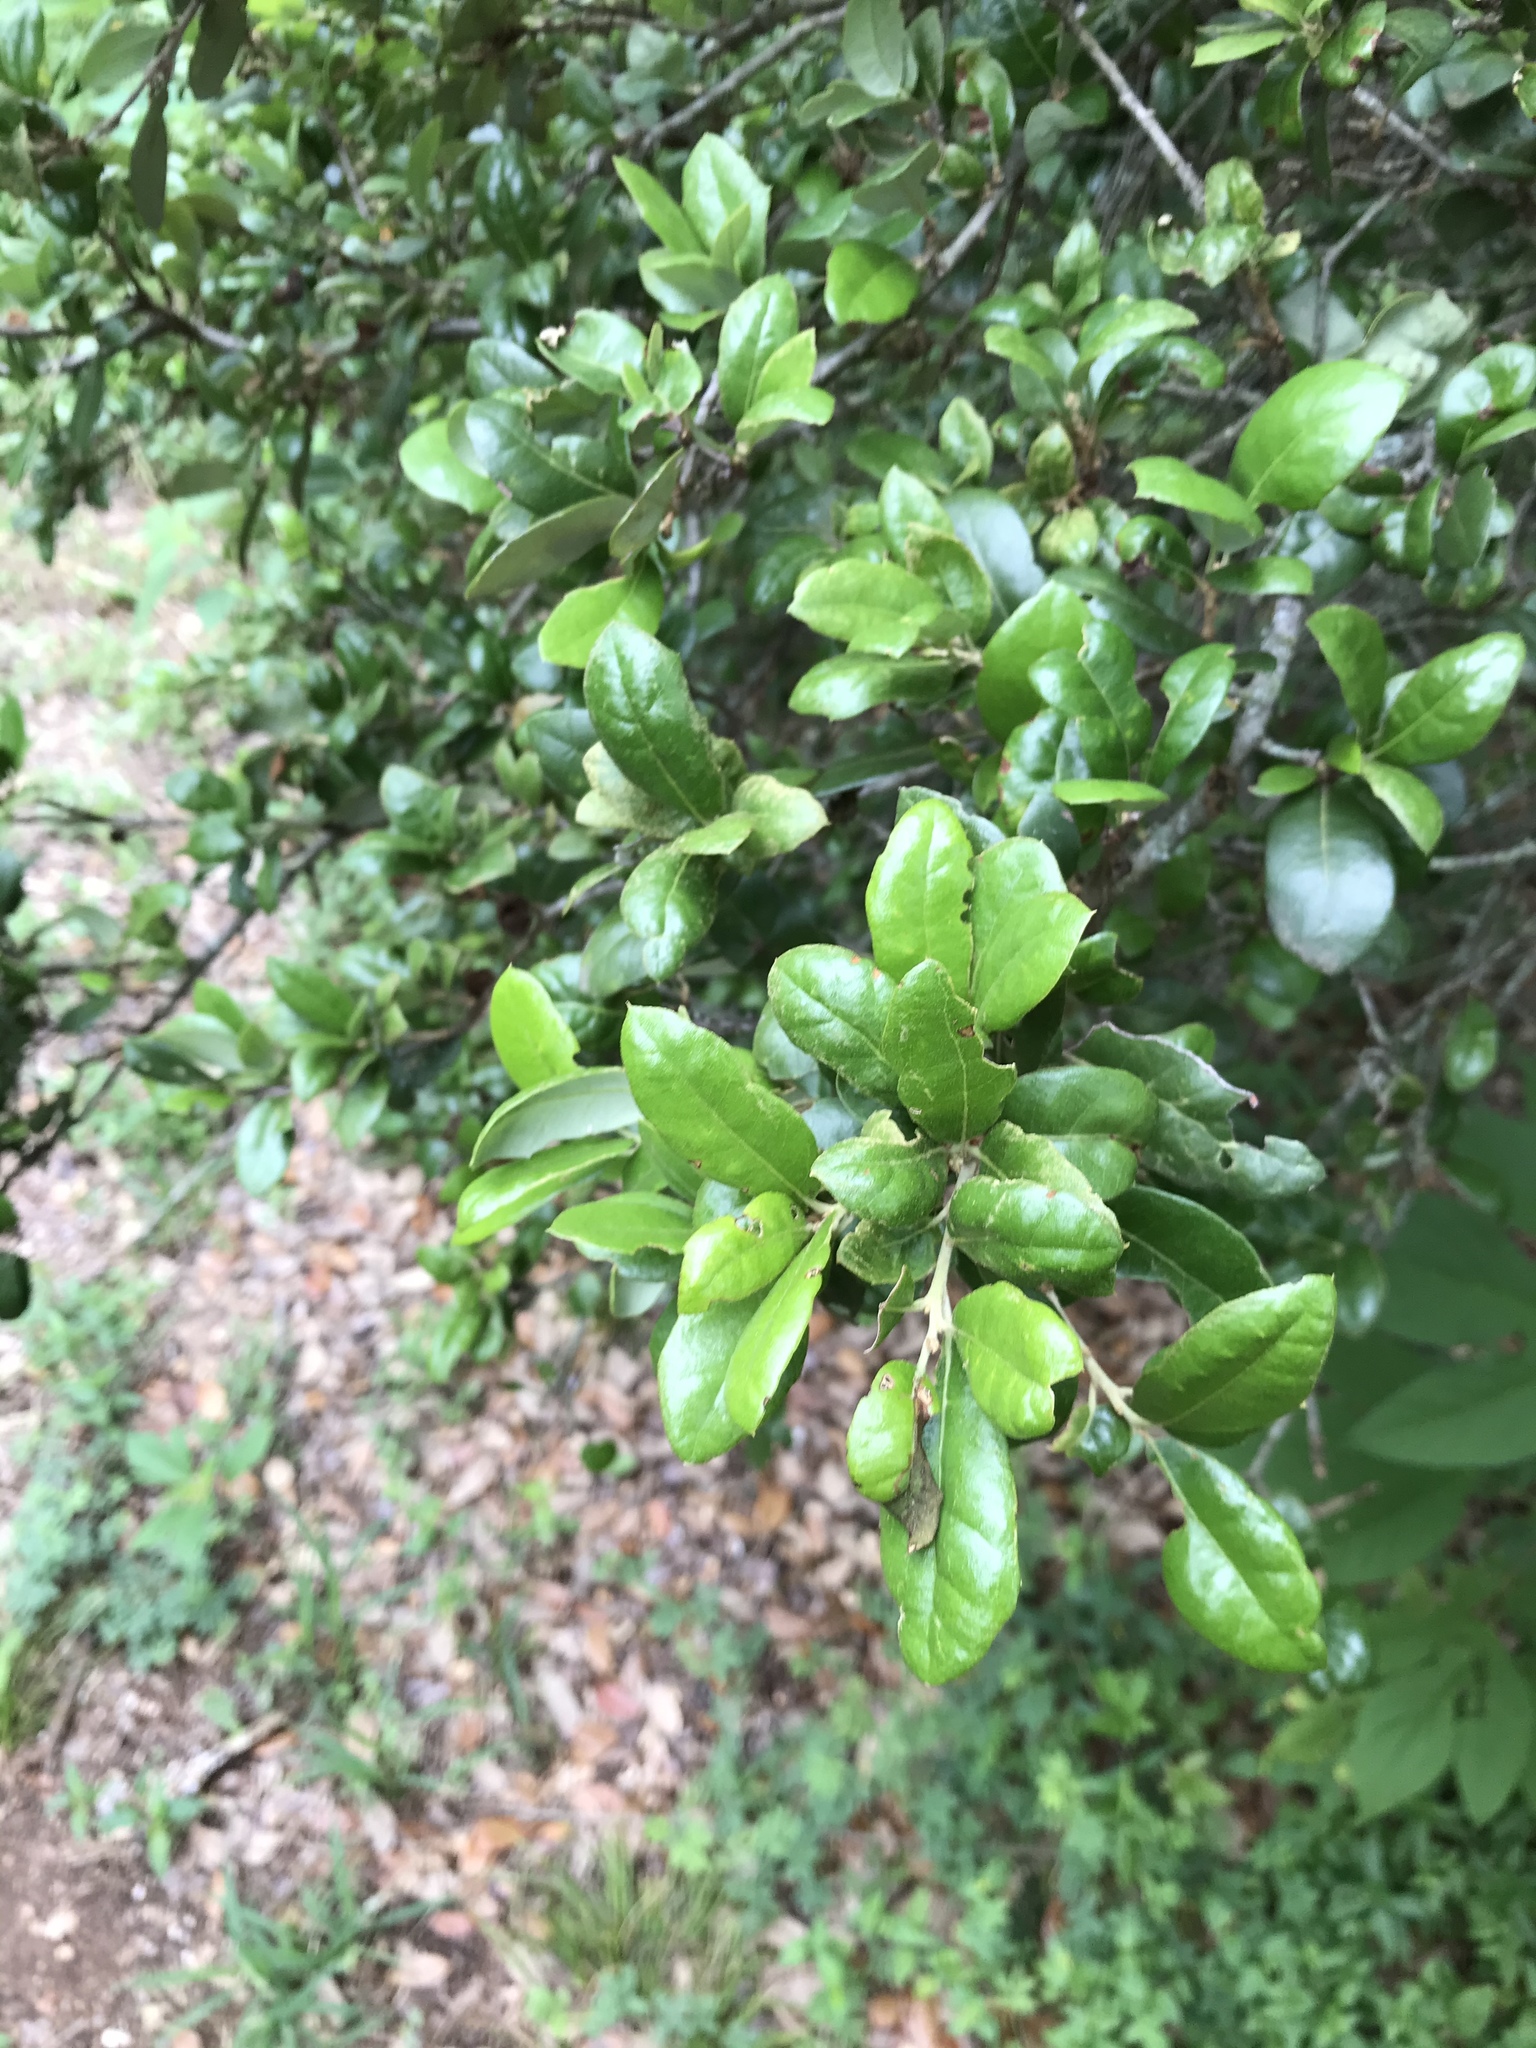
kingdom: Plantae
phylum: Tracheophyta
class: Magnoliopsida
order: Fagales
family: Fagaceae
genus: Quercus
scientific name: Quercus fusiformis
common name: Texas live oak
